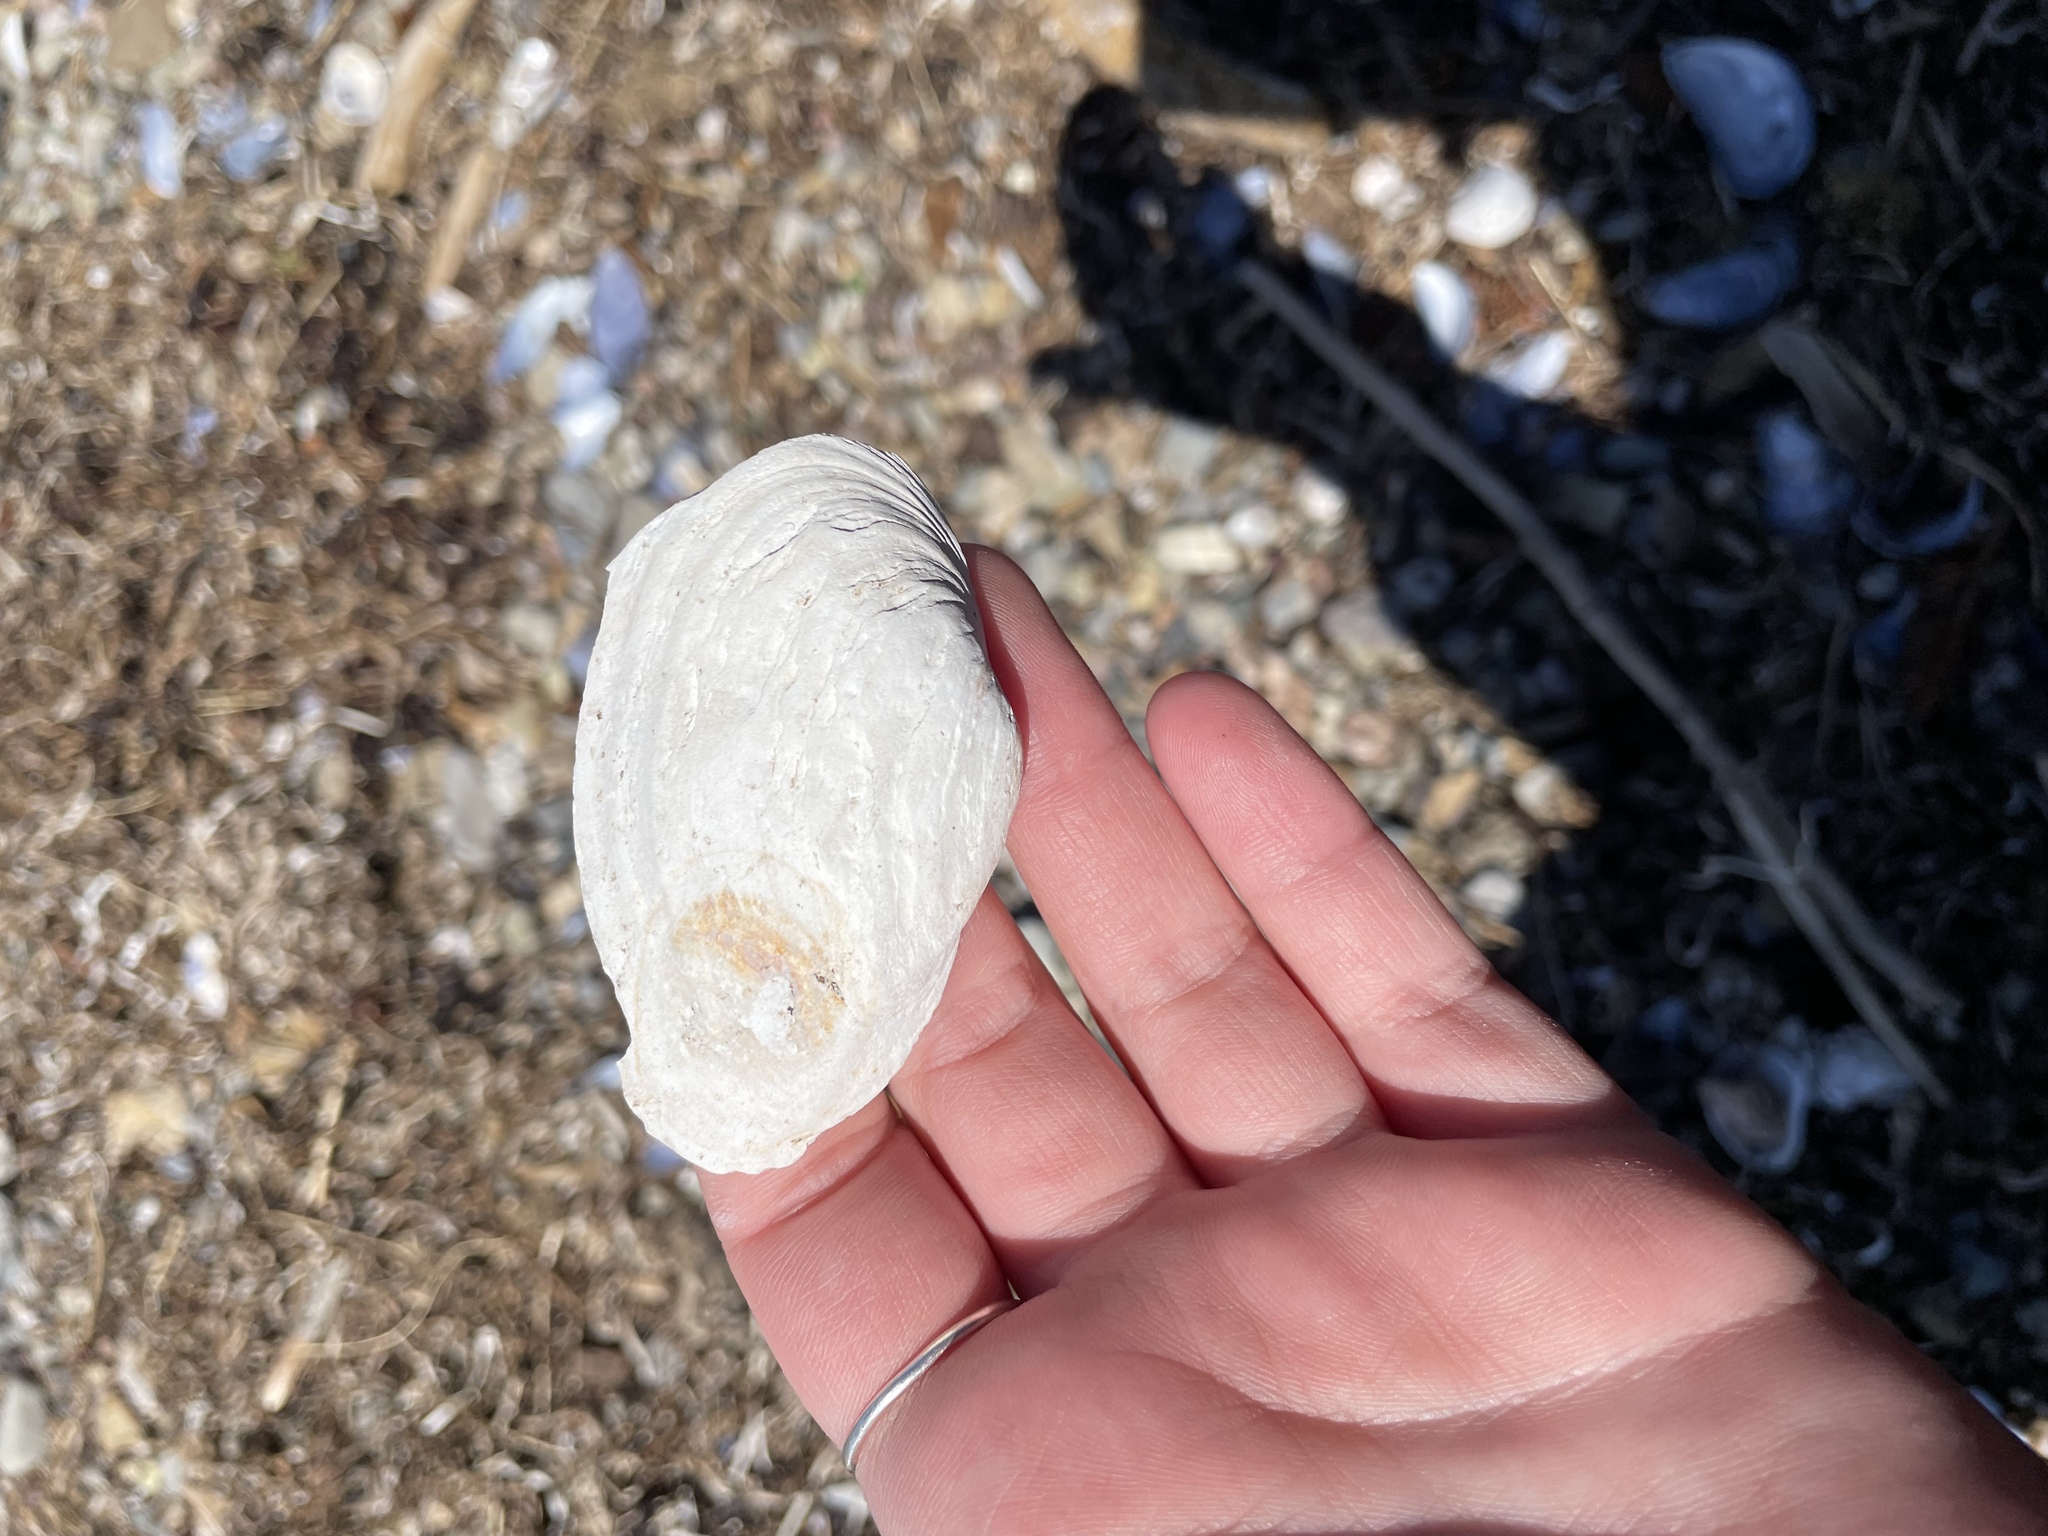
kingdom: Animalia
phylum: Mollusca
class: Bivalvia
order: Myida
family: Myidae
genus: Mya
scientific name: Mya arenaria
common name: Soft-shelled clam
